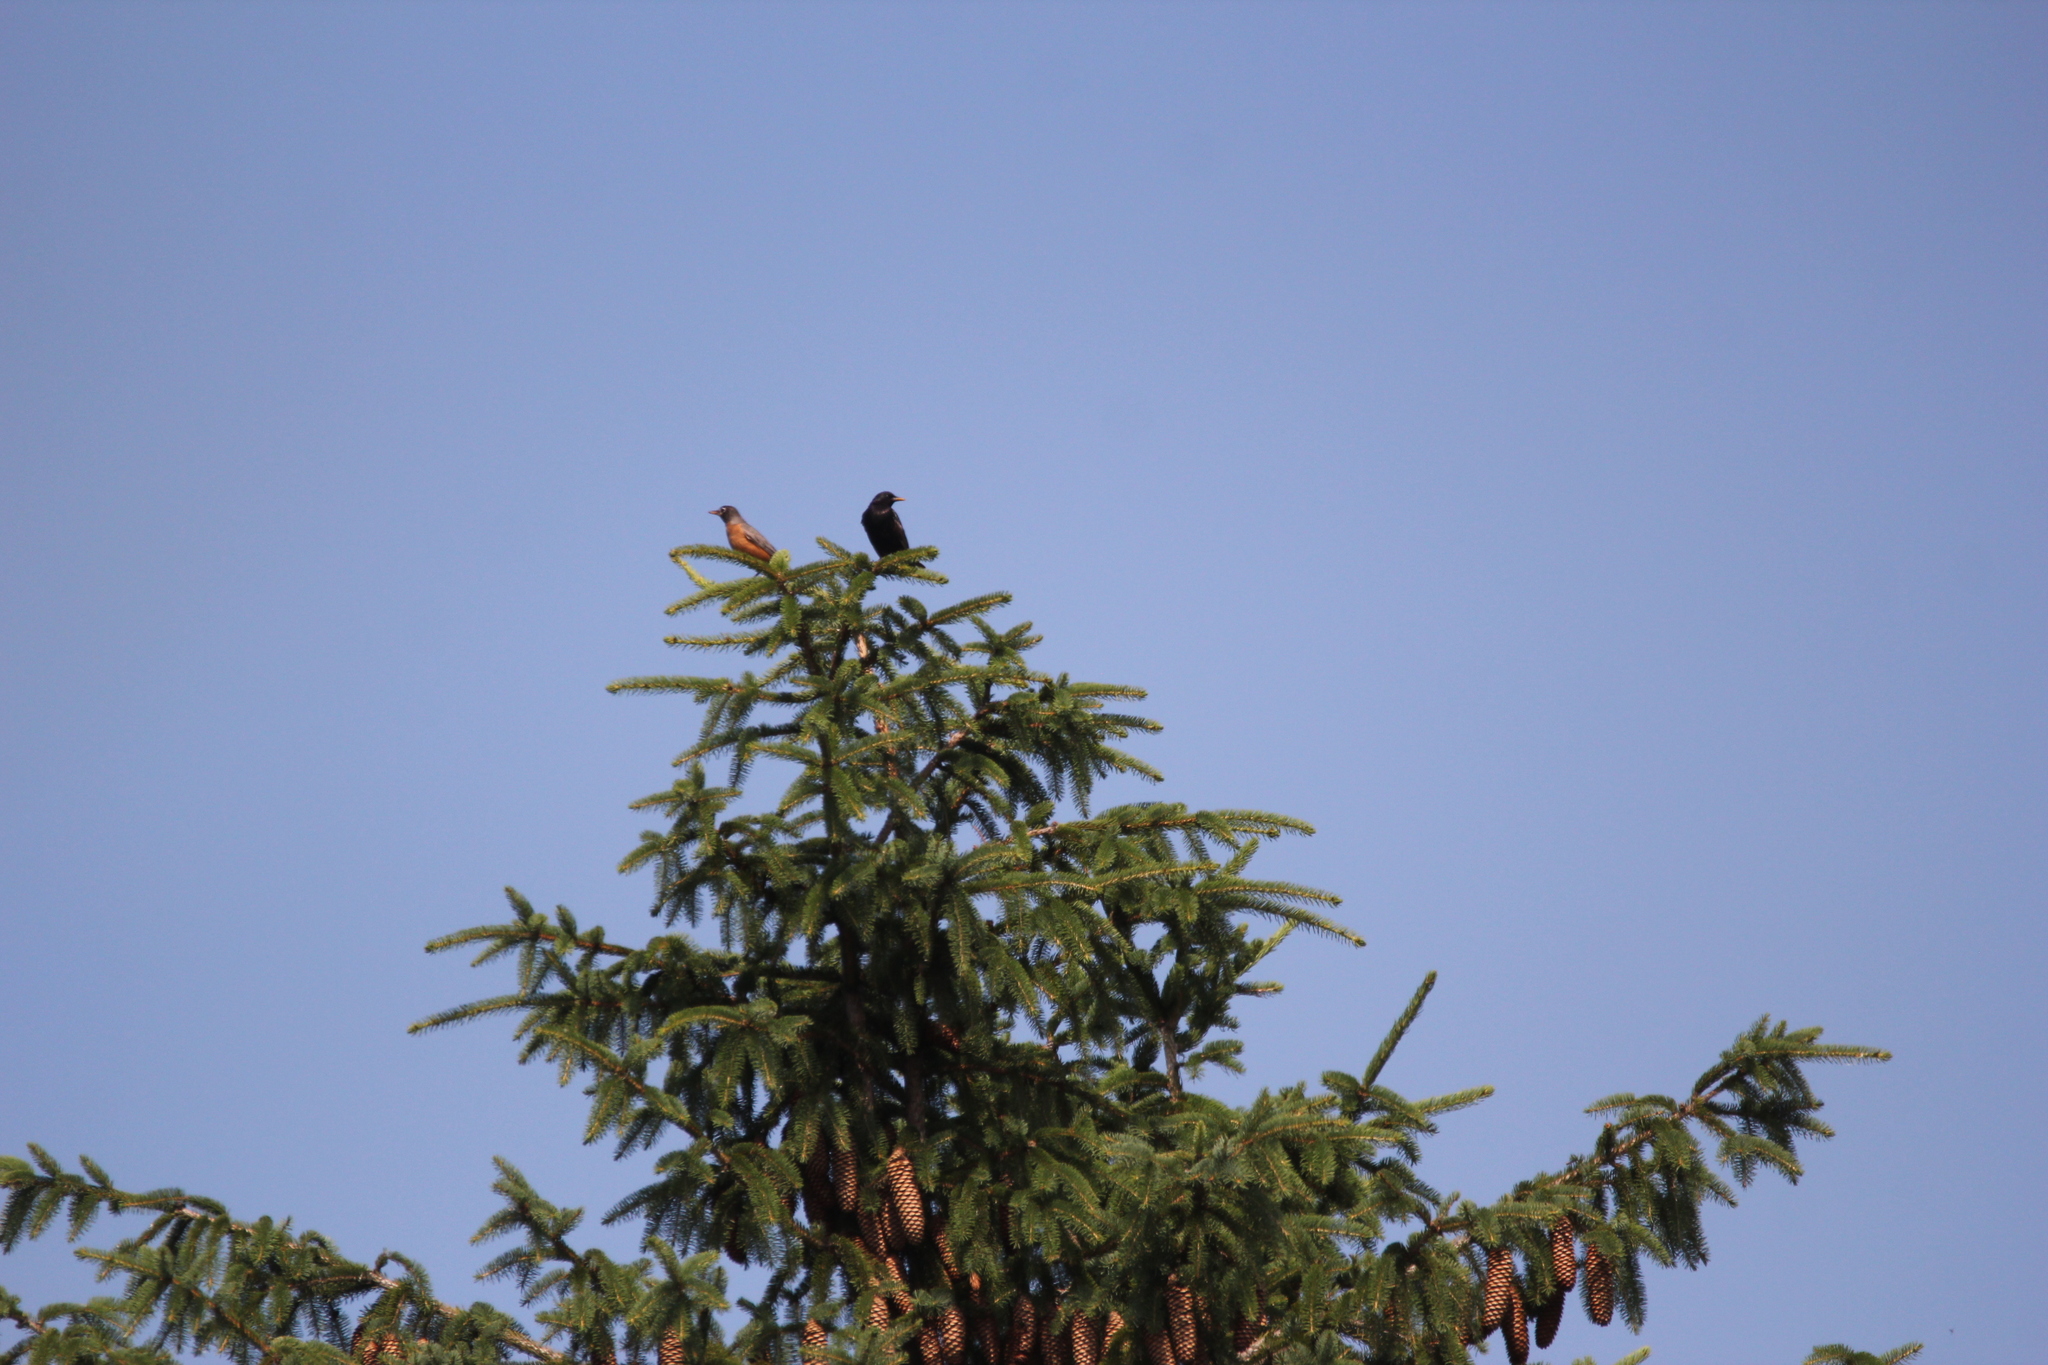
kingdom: Animalia
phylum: Chordata
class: Aves
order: Passeriformes
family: Turdidae
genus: Turdus
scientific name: Turdus migratorius
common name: American robin
